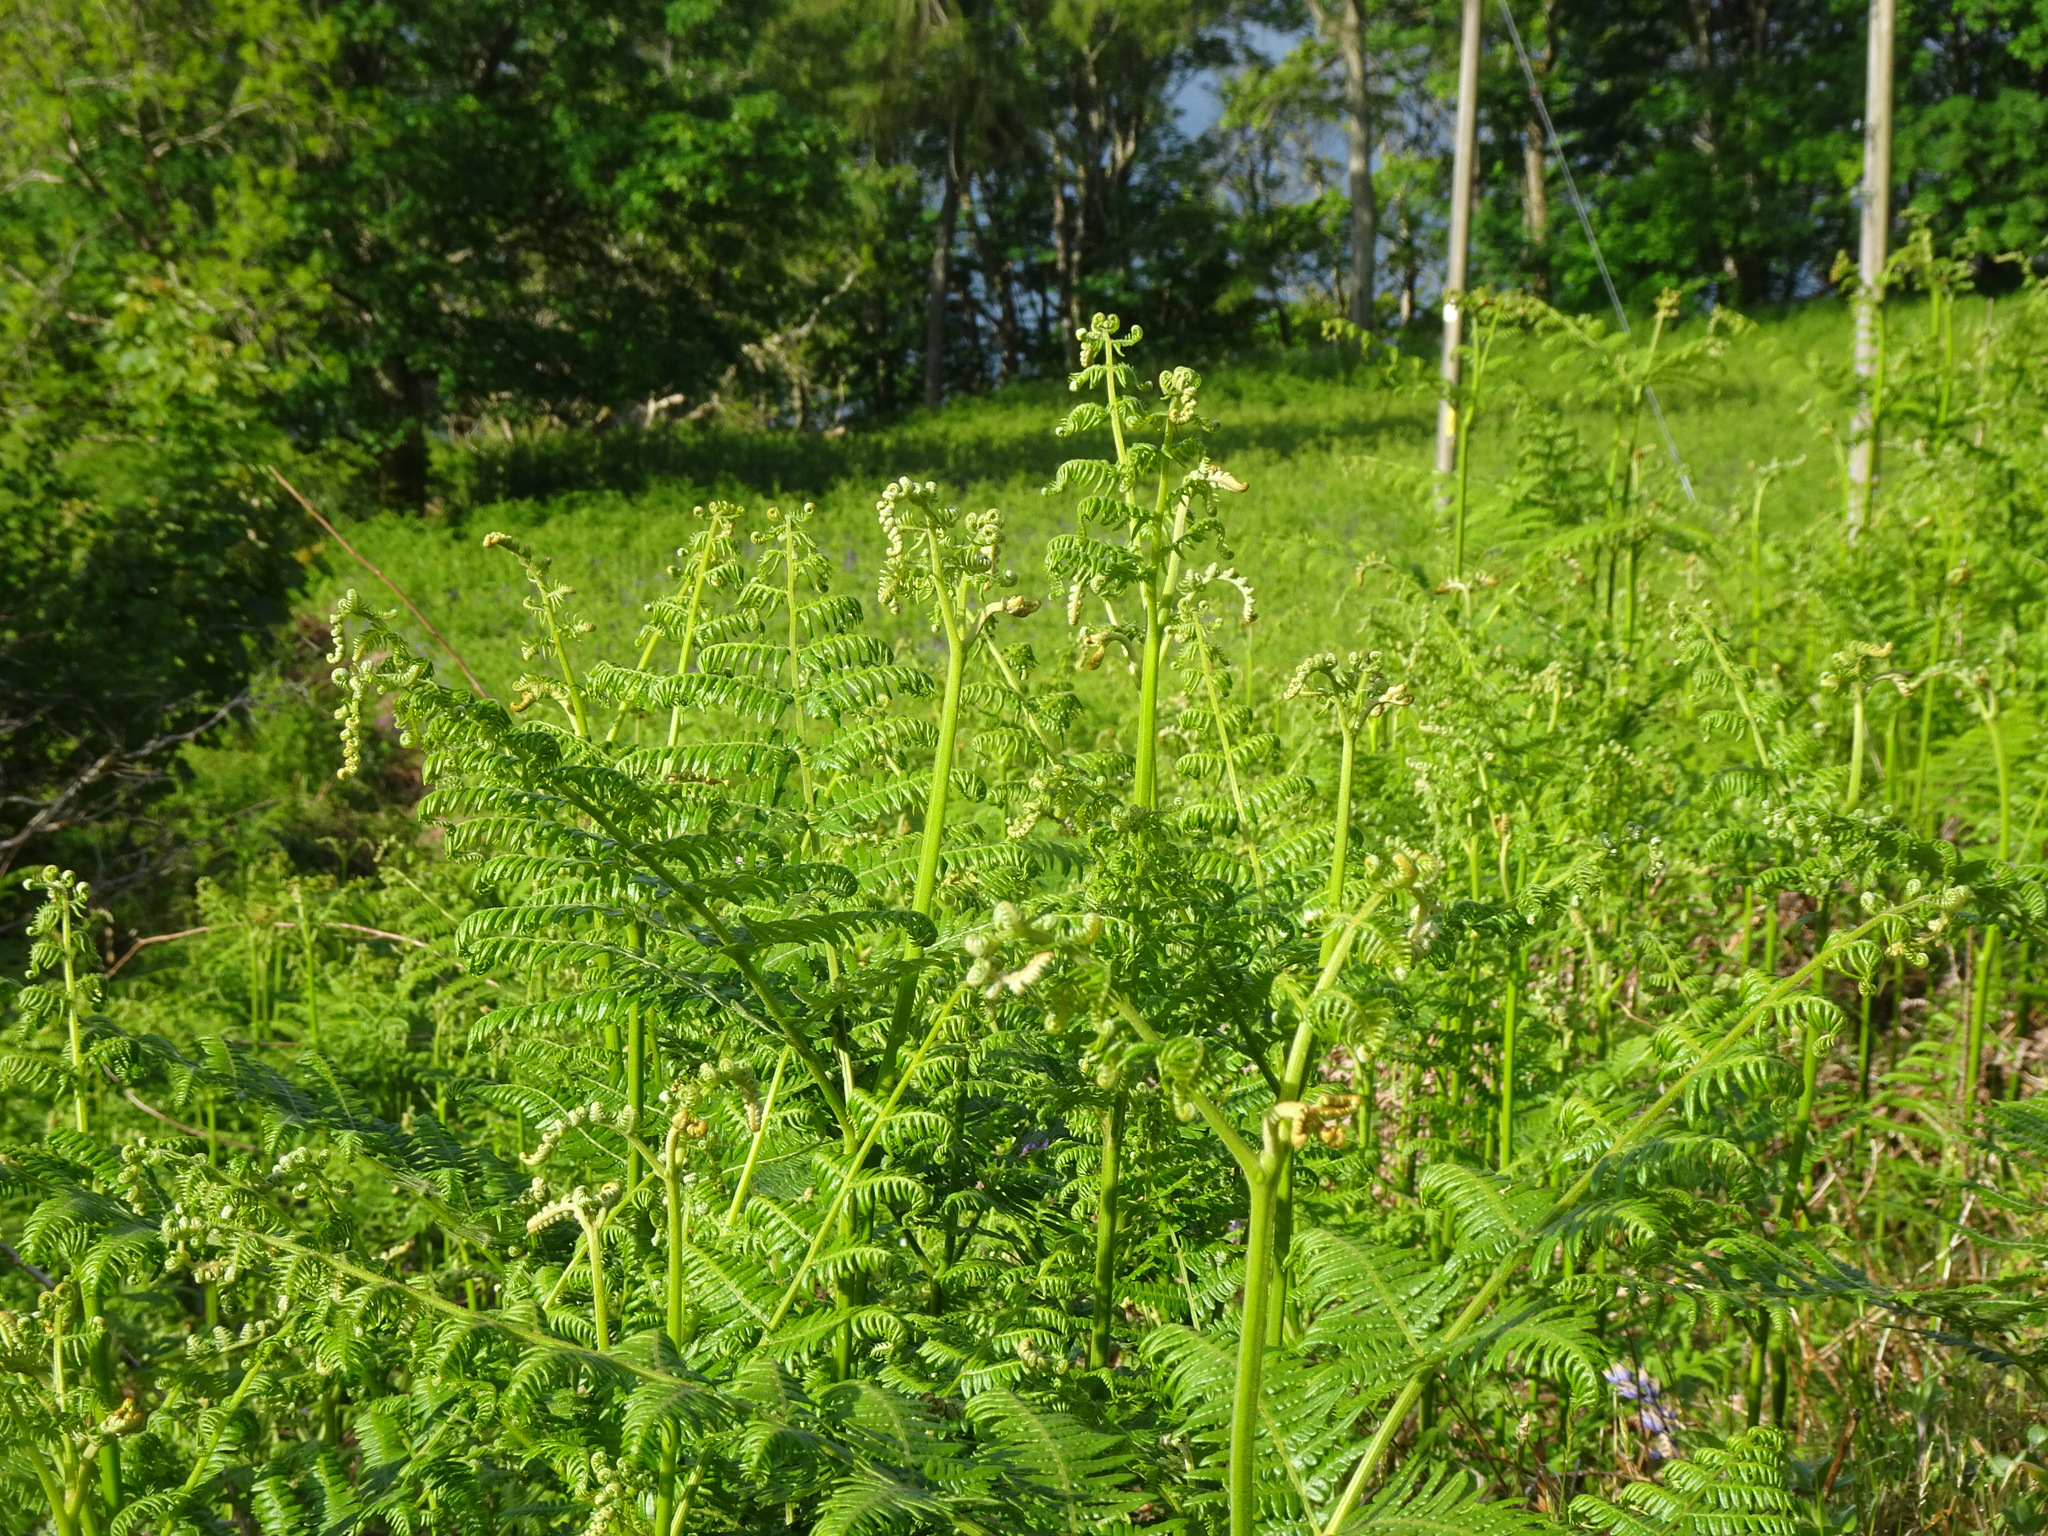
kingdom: Plantae
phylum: Tracheophyta
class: Polypodiopsida
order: Polypodiales
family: Dennstaedtiaceae
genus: Pteridium
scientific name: Pteridium aquilinum
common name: Bracken
